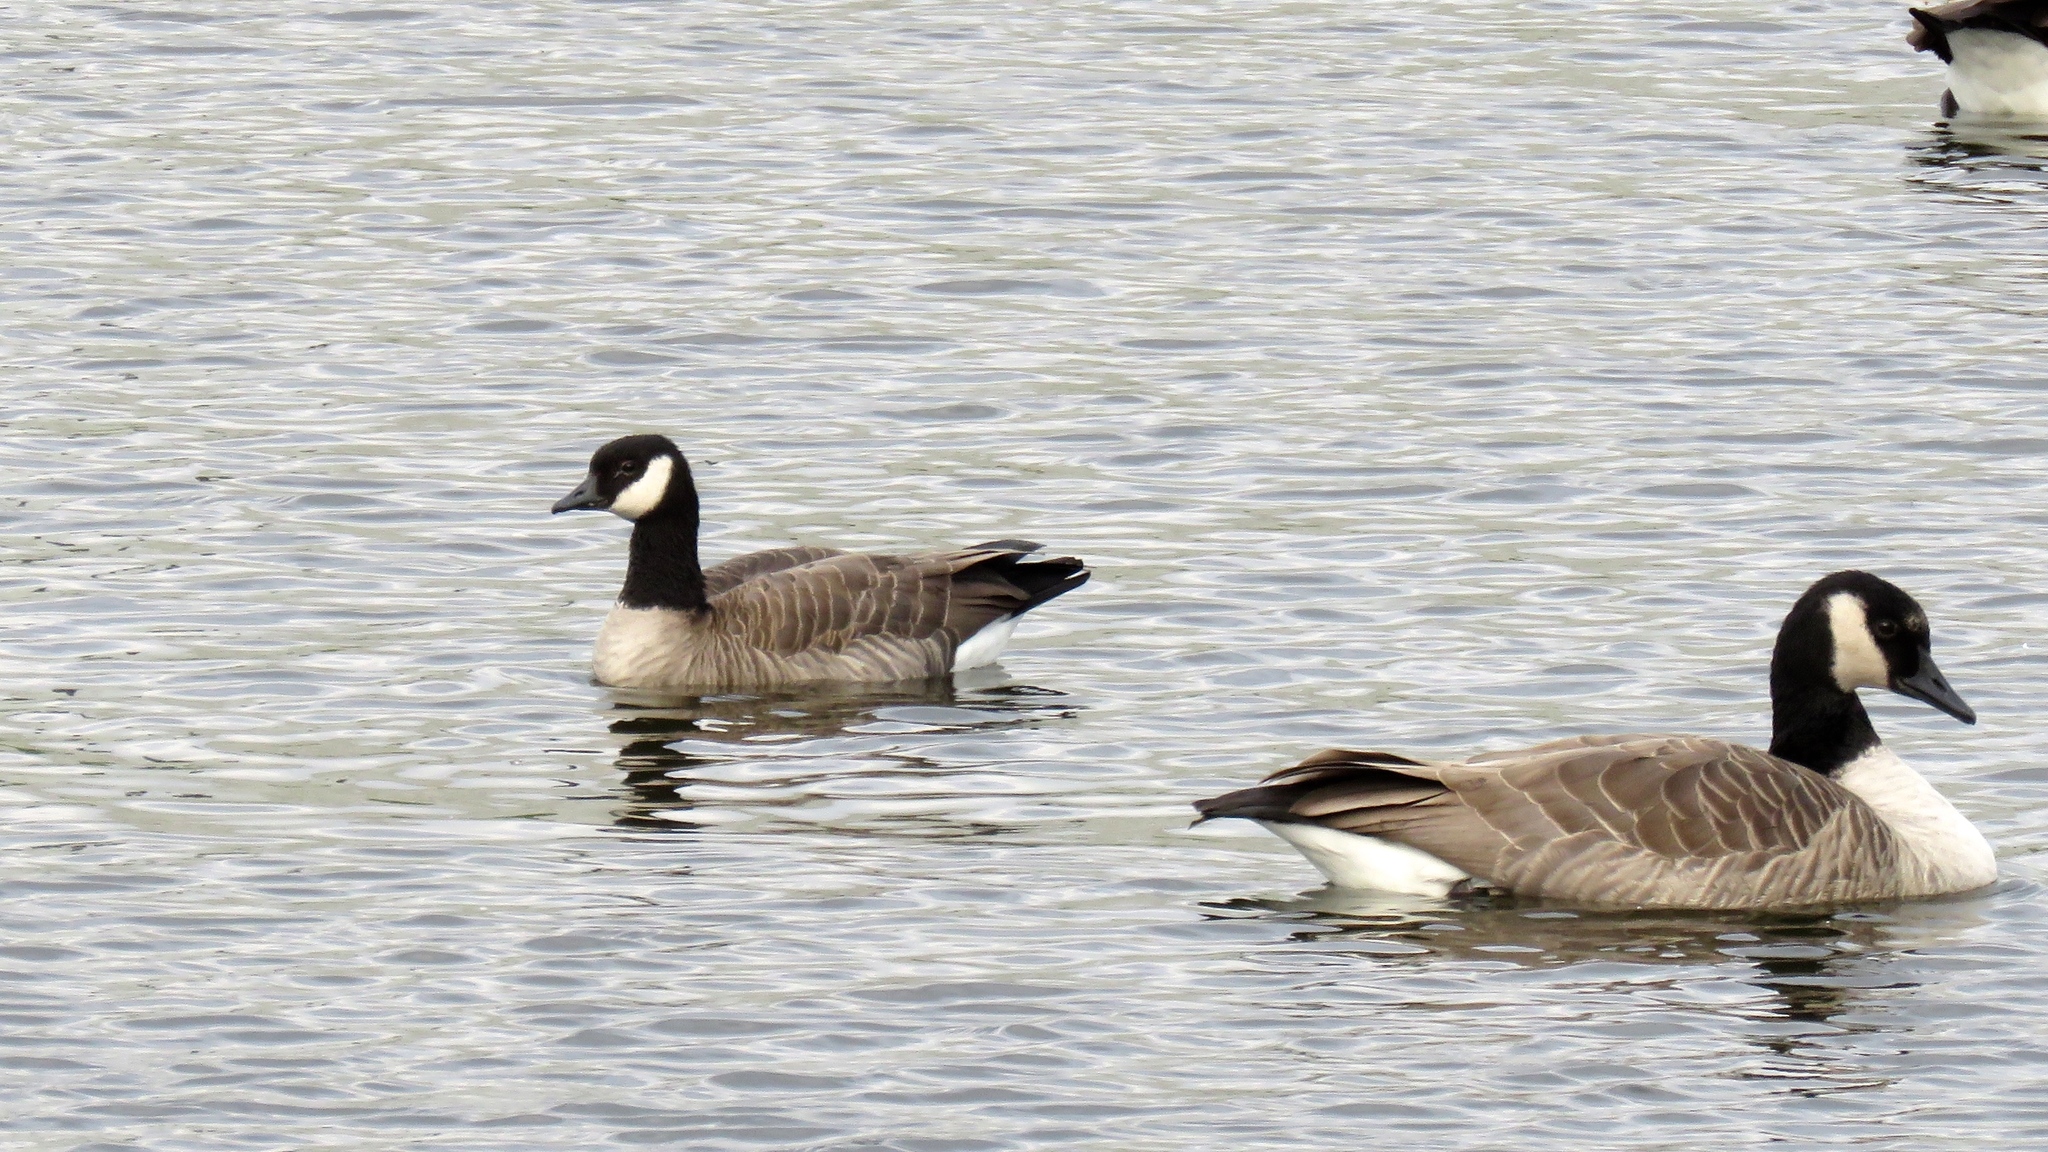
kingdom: Animalia
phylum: Chordata
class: Aves
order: Anseriformes
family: Anatidae
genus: Branta
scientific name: Branta hutchinsii
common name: Cackling goose
